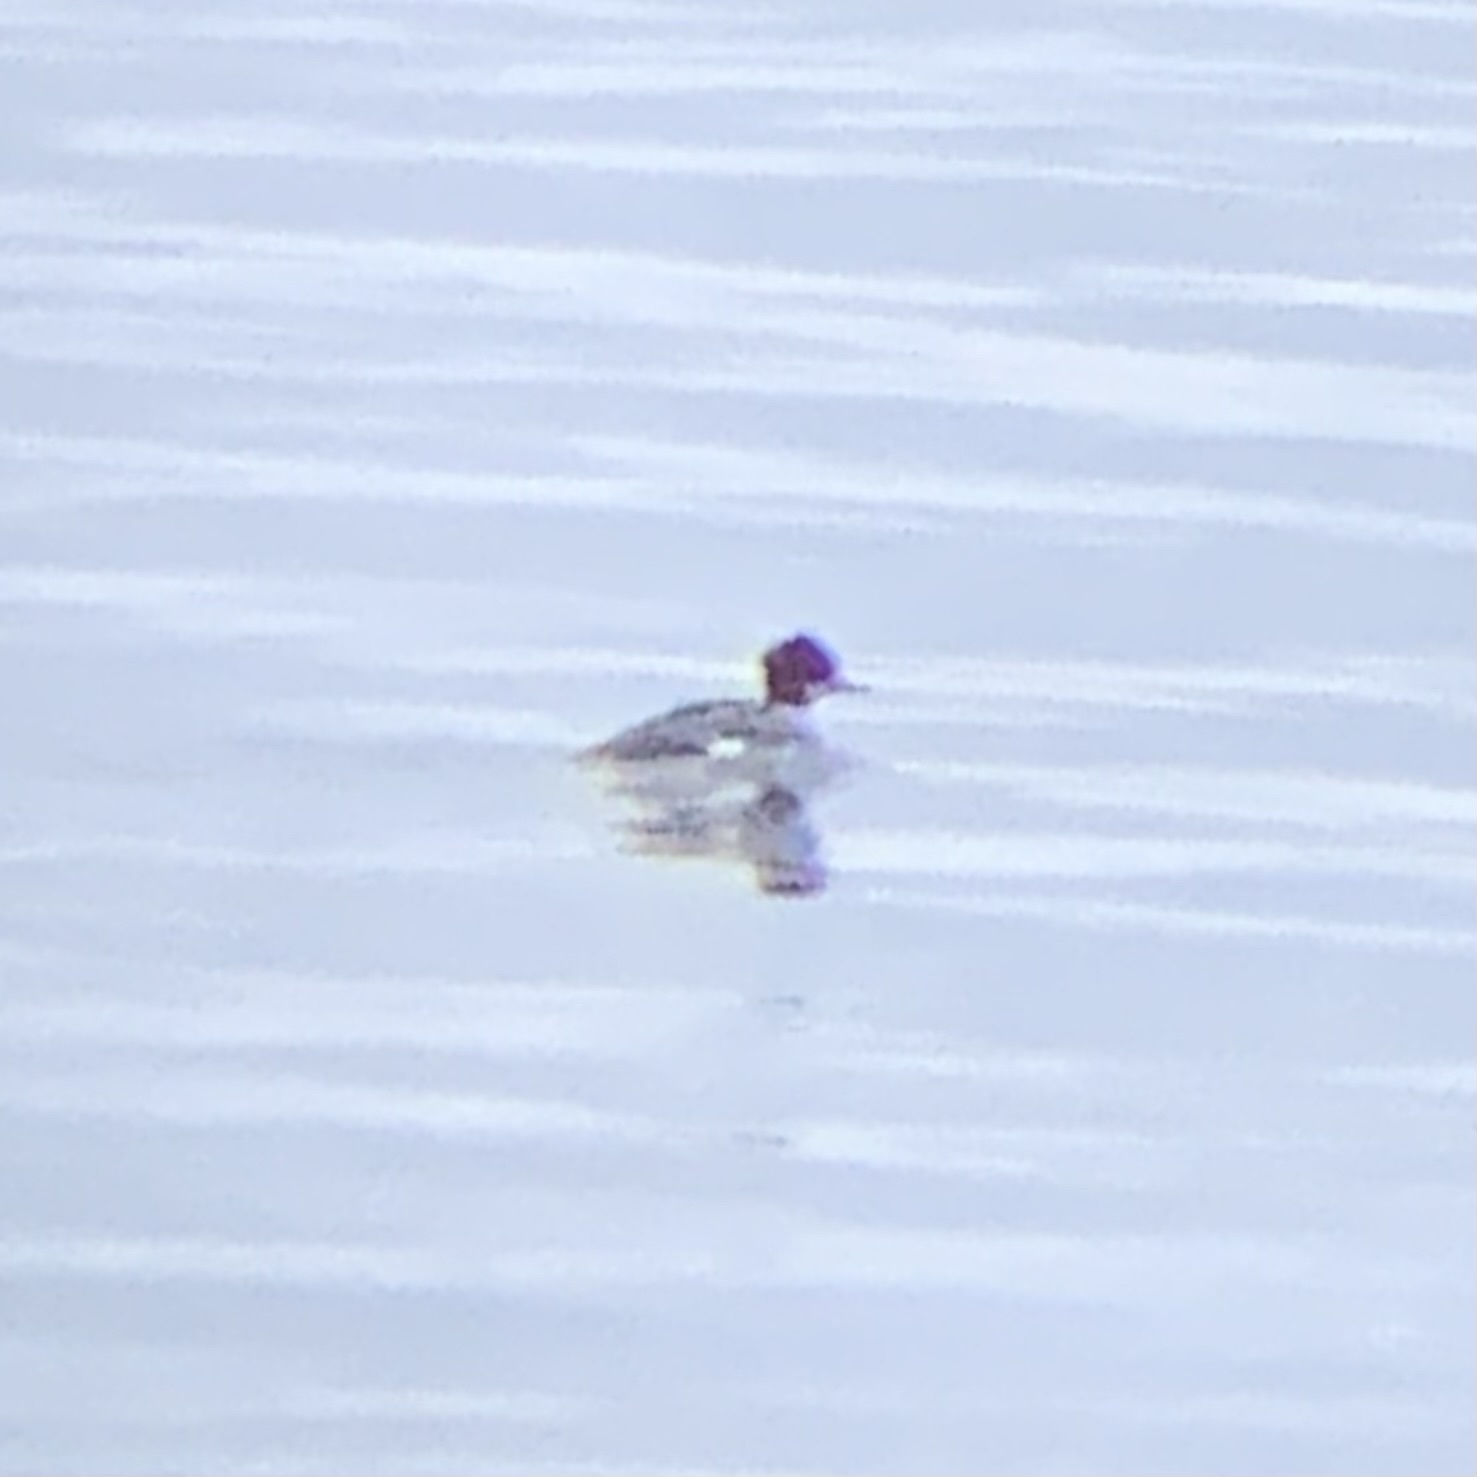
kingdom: Animalia
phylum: Chordata
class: Aves
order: Anseriformes
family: Anatidae
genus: Mergus
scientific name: Mergus merganser
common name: Common merganser
